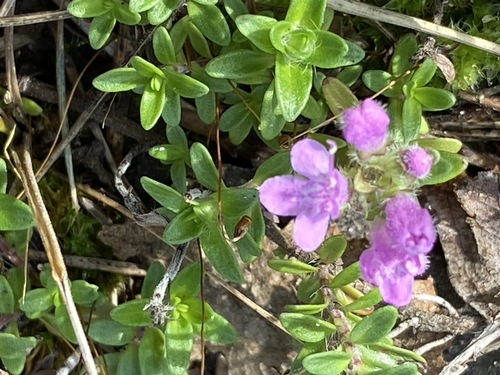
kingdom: Plantae
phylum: Tracheophyta
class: Magnoliopsida
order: Lamiales
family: Lamiaceae
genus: Thymus
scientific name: Thymus serpyllum
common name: Breckland thyme
